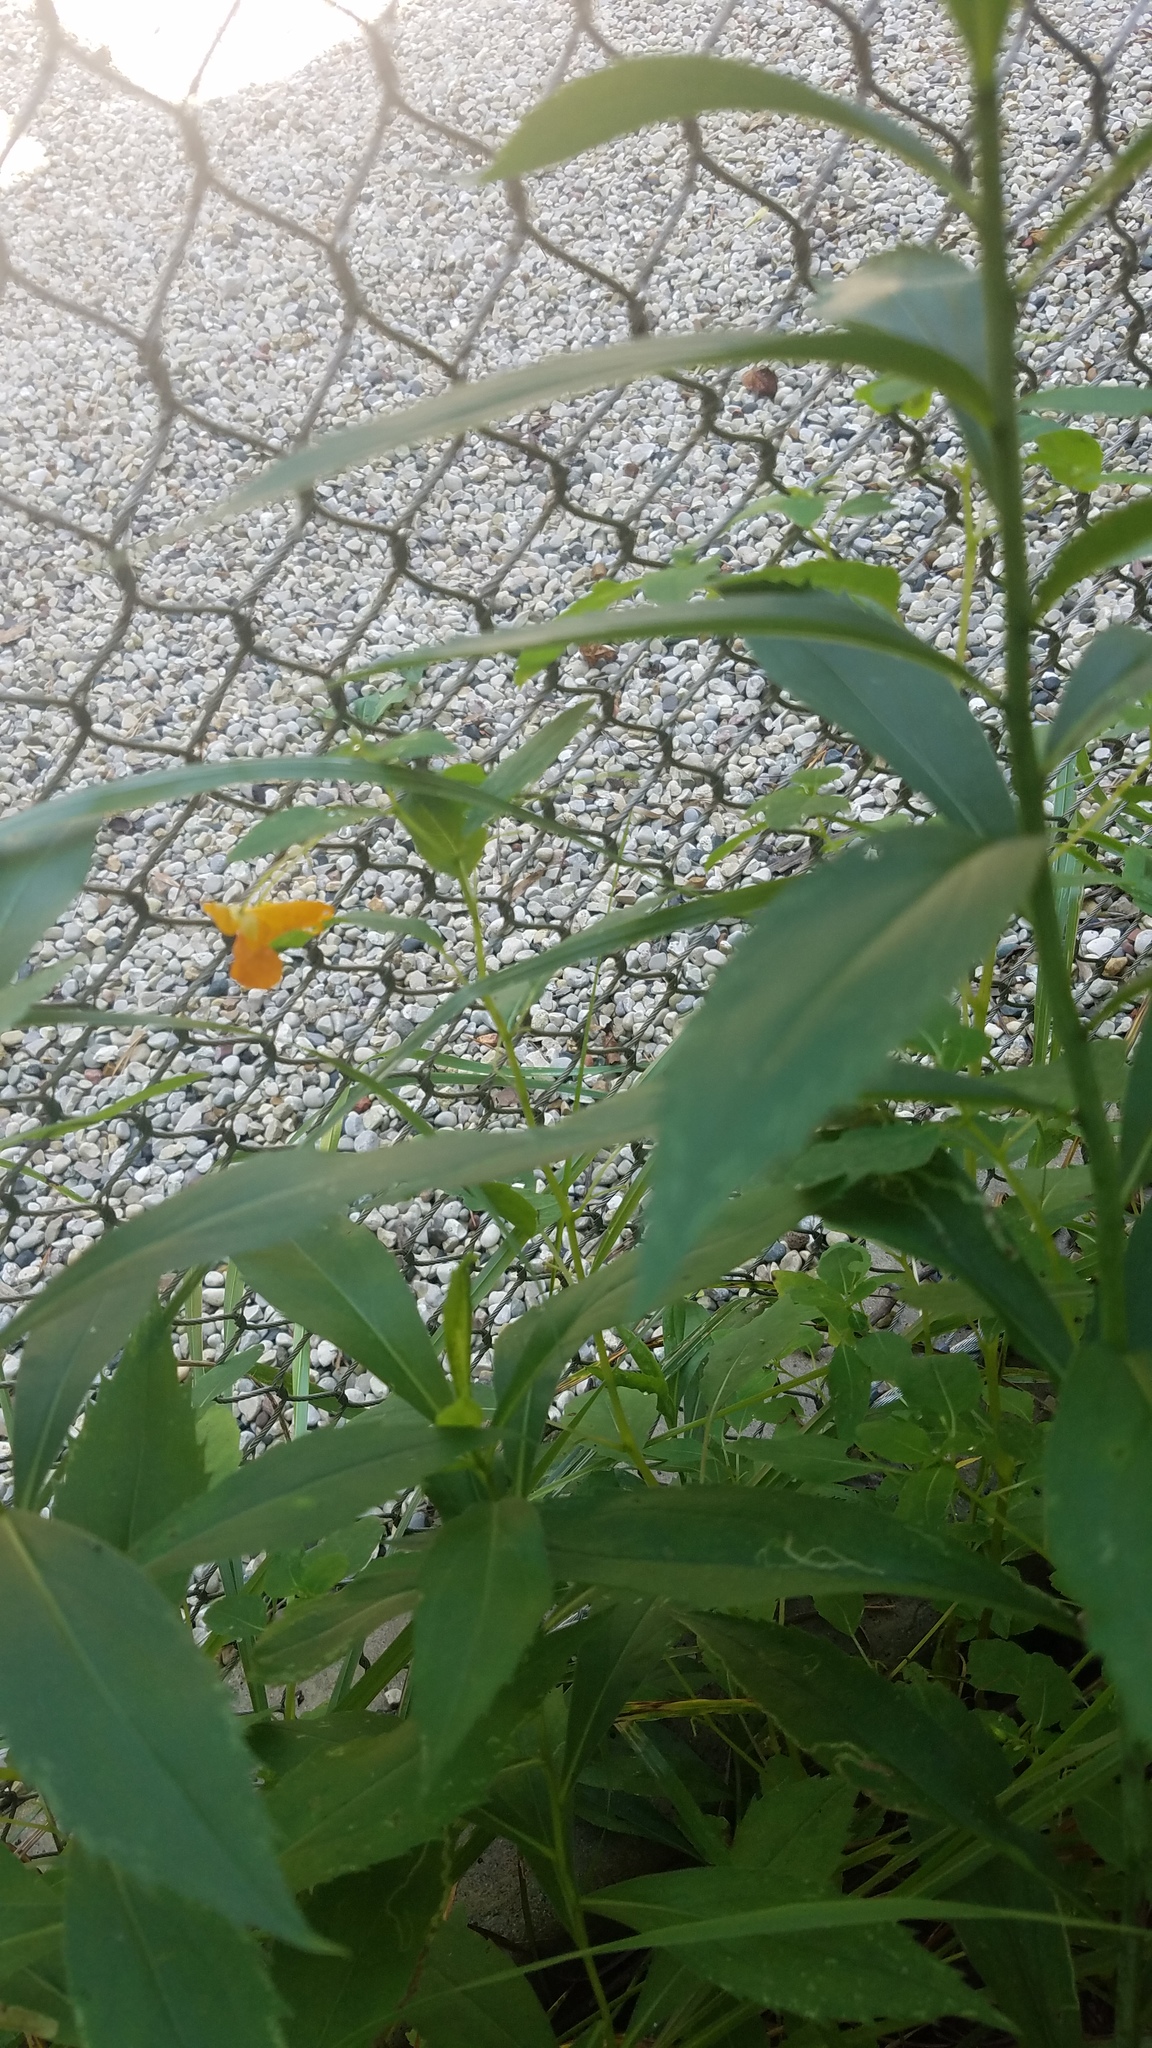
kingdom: Plantae
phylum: Tracheophyta
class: Magnoliopsida
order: Ericales
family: Balsaminaceae
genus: Impatiens
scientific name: Impatiens capensis
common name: Orange balsam
